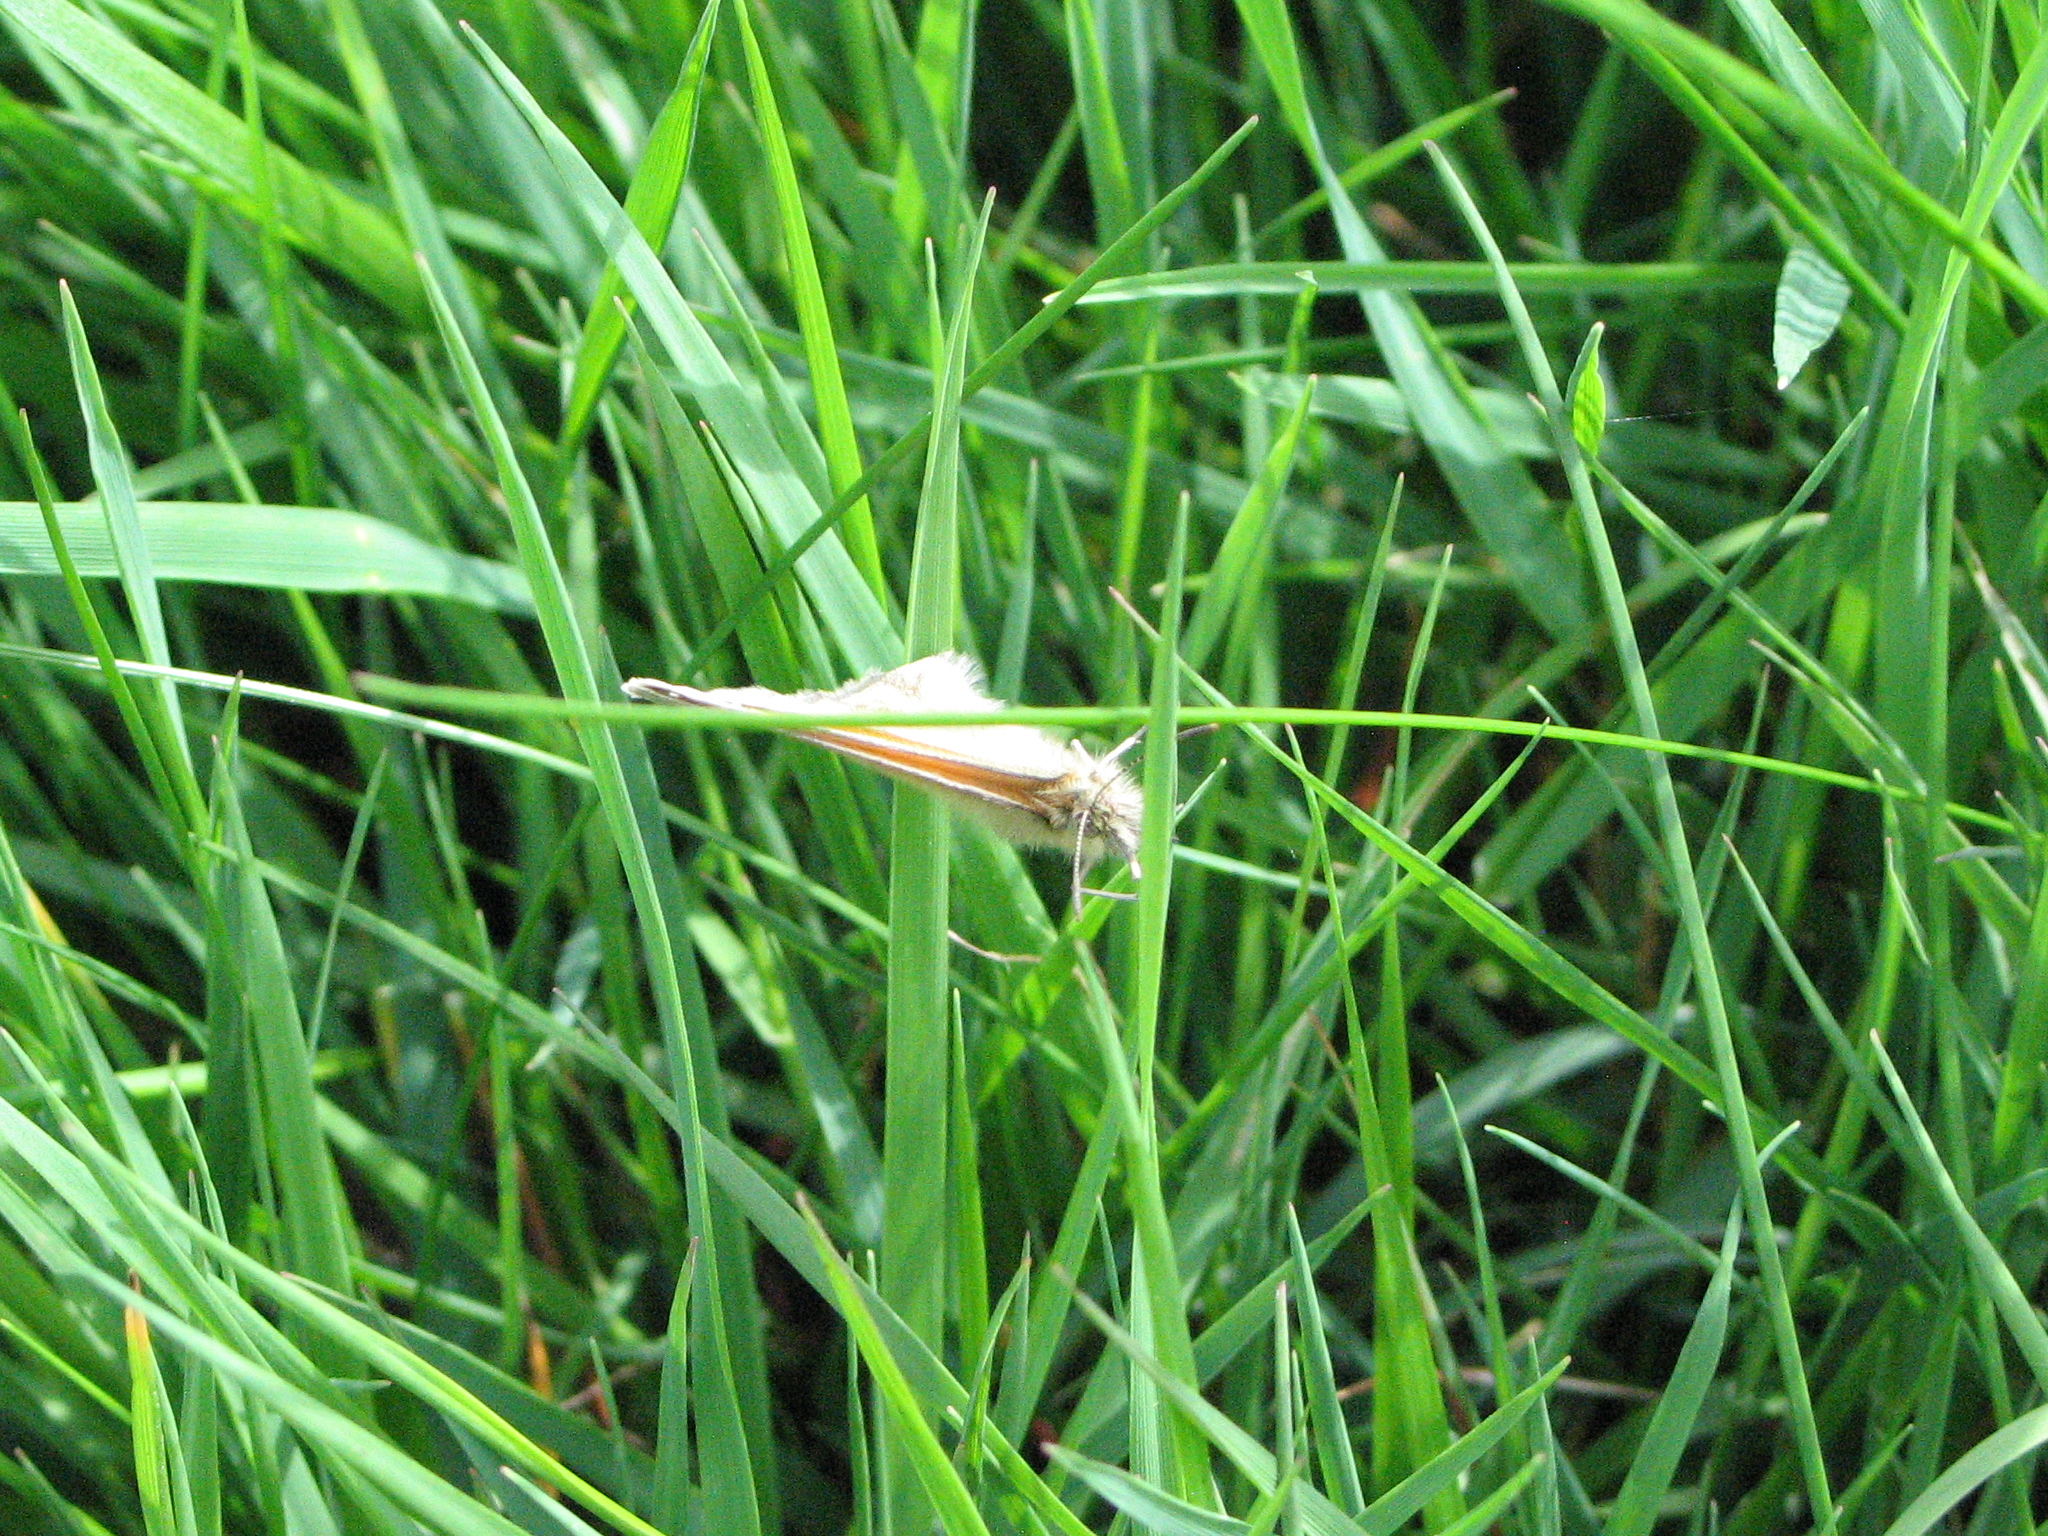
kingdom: Animalia
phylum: Arthropoda
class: Insecta
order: Lepidoptera
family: Nymphalidae
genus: Coenonympha
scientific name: Coenonympha pamphilus
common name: Small heath
